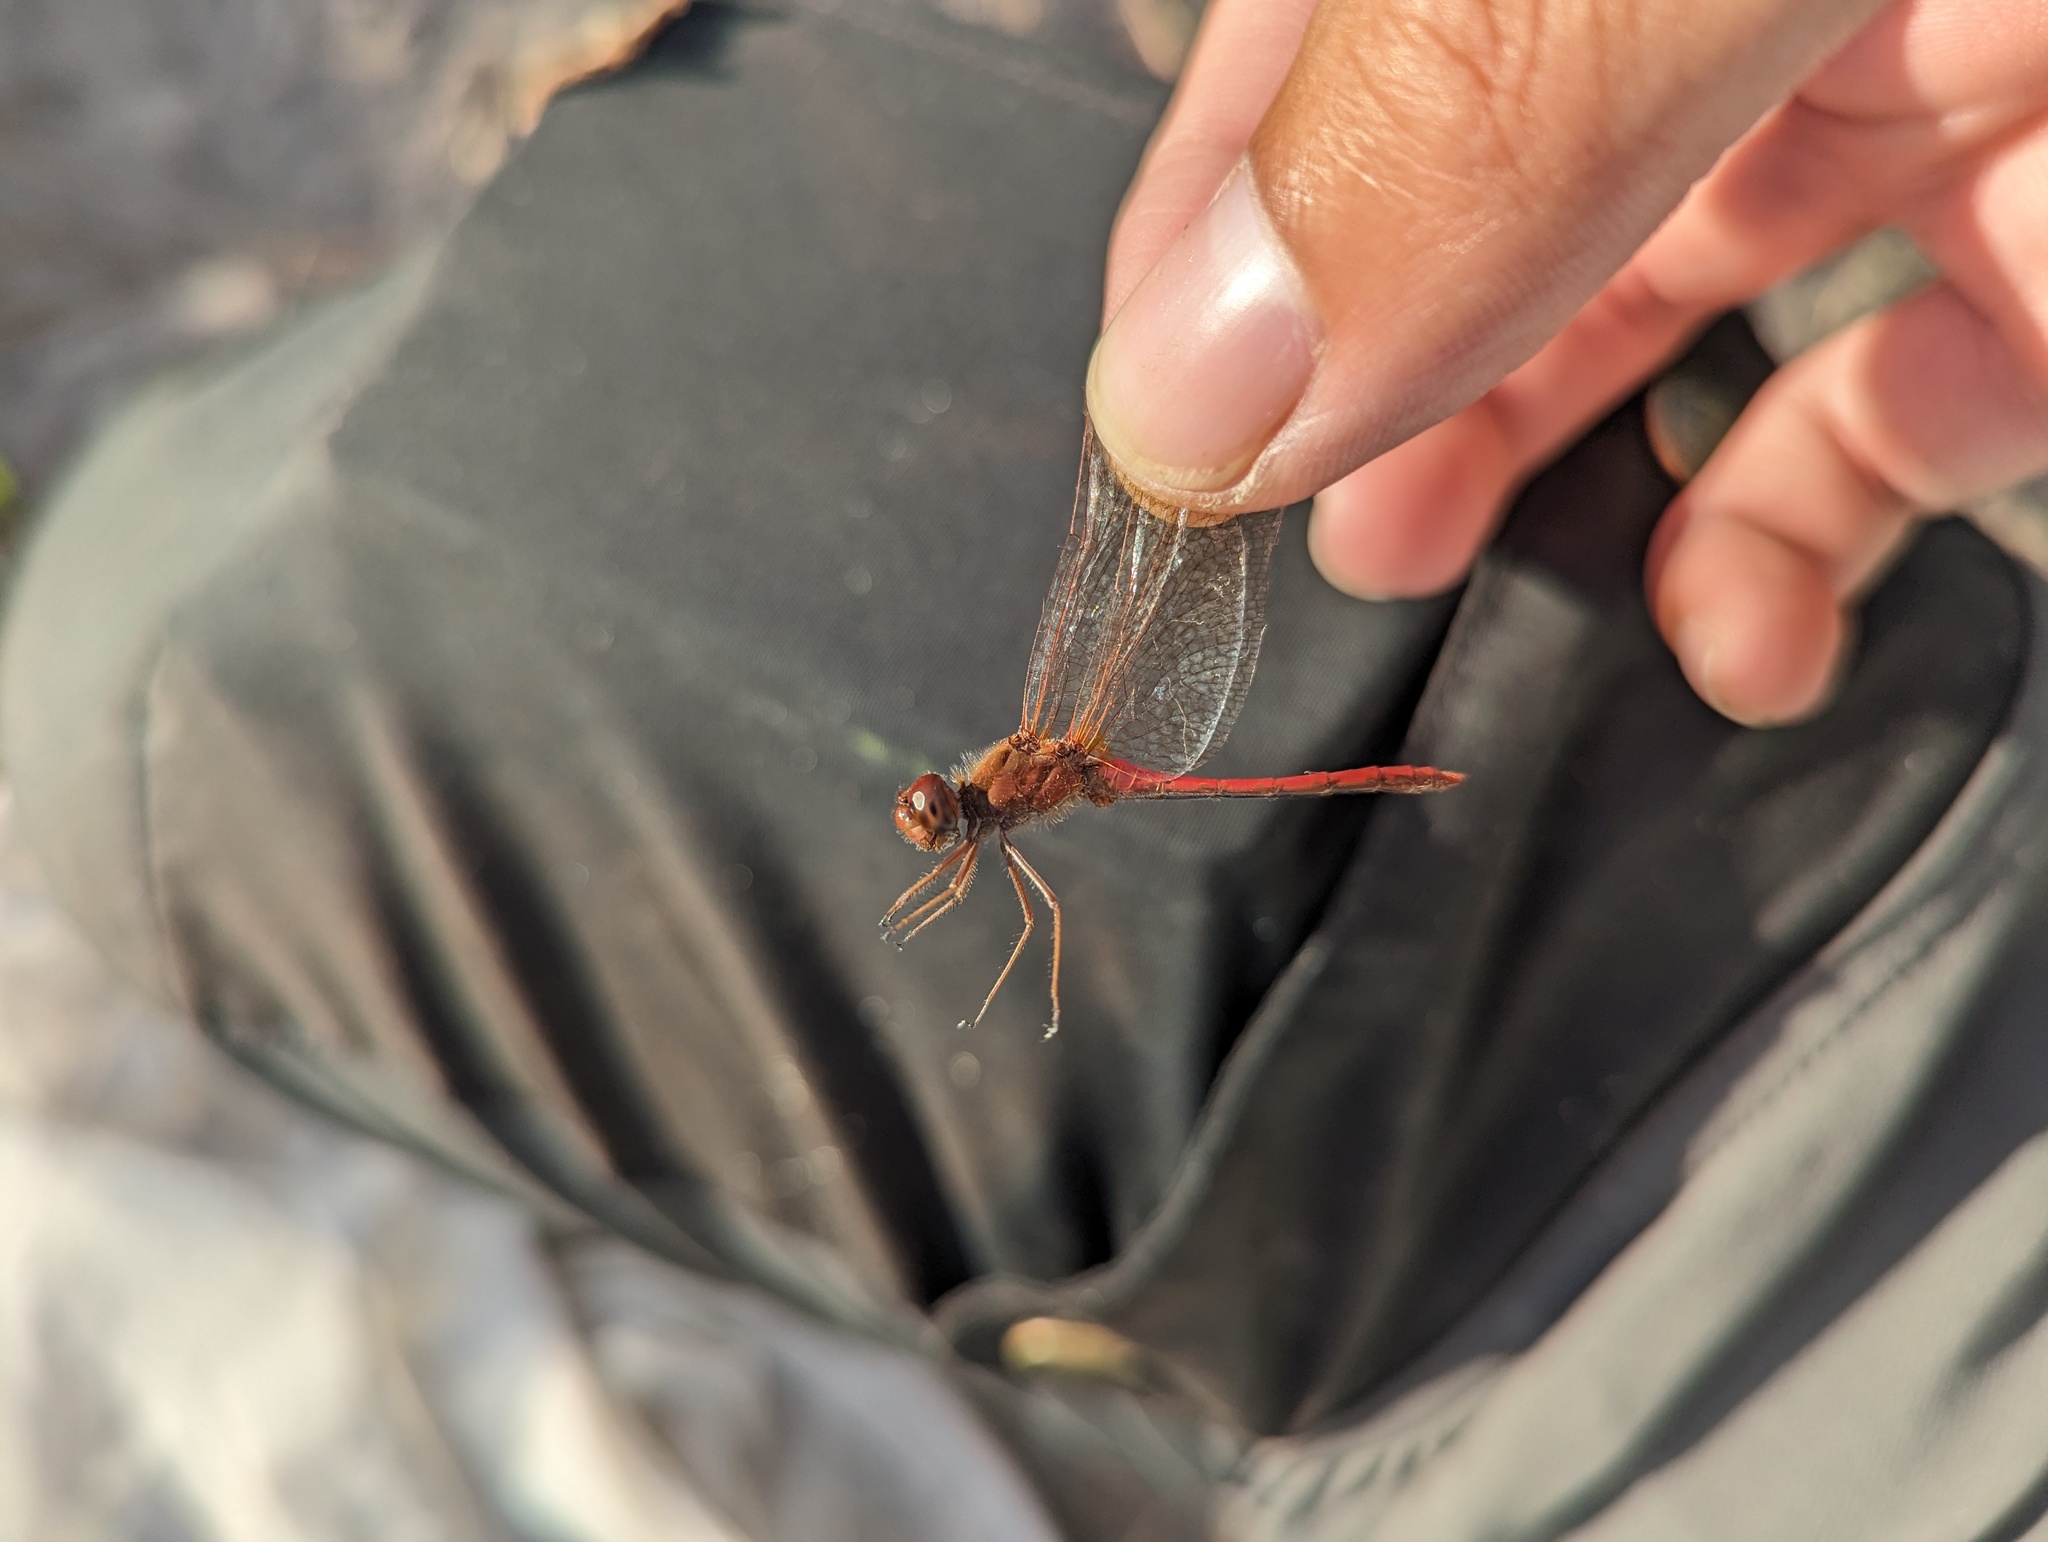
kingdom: Animalia
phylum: Arthropoda
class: Insecta
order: Odonata
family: Libellulidae
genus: Sympetrum
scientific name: Sympetrum vicinum
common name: Autumn meadowhawk
